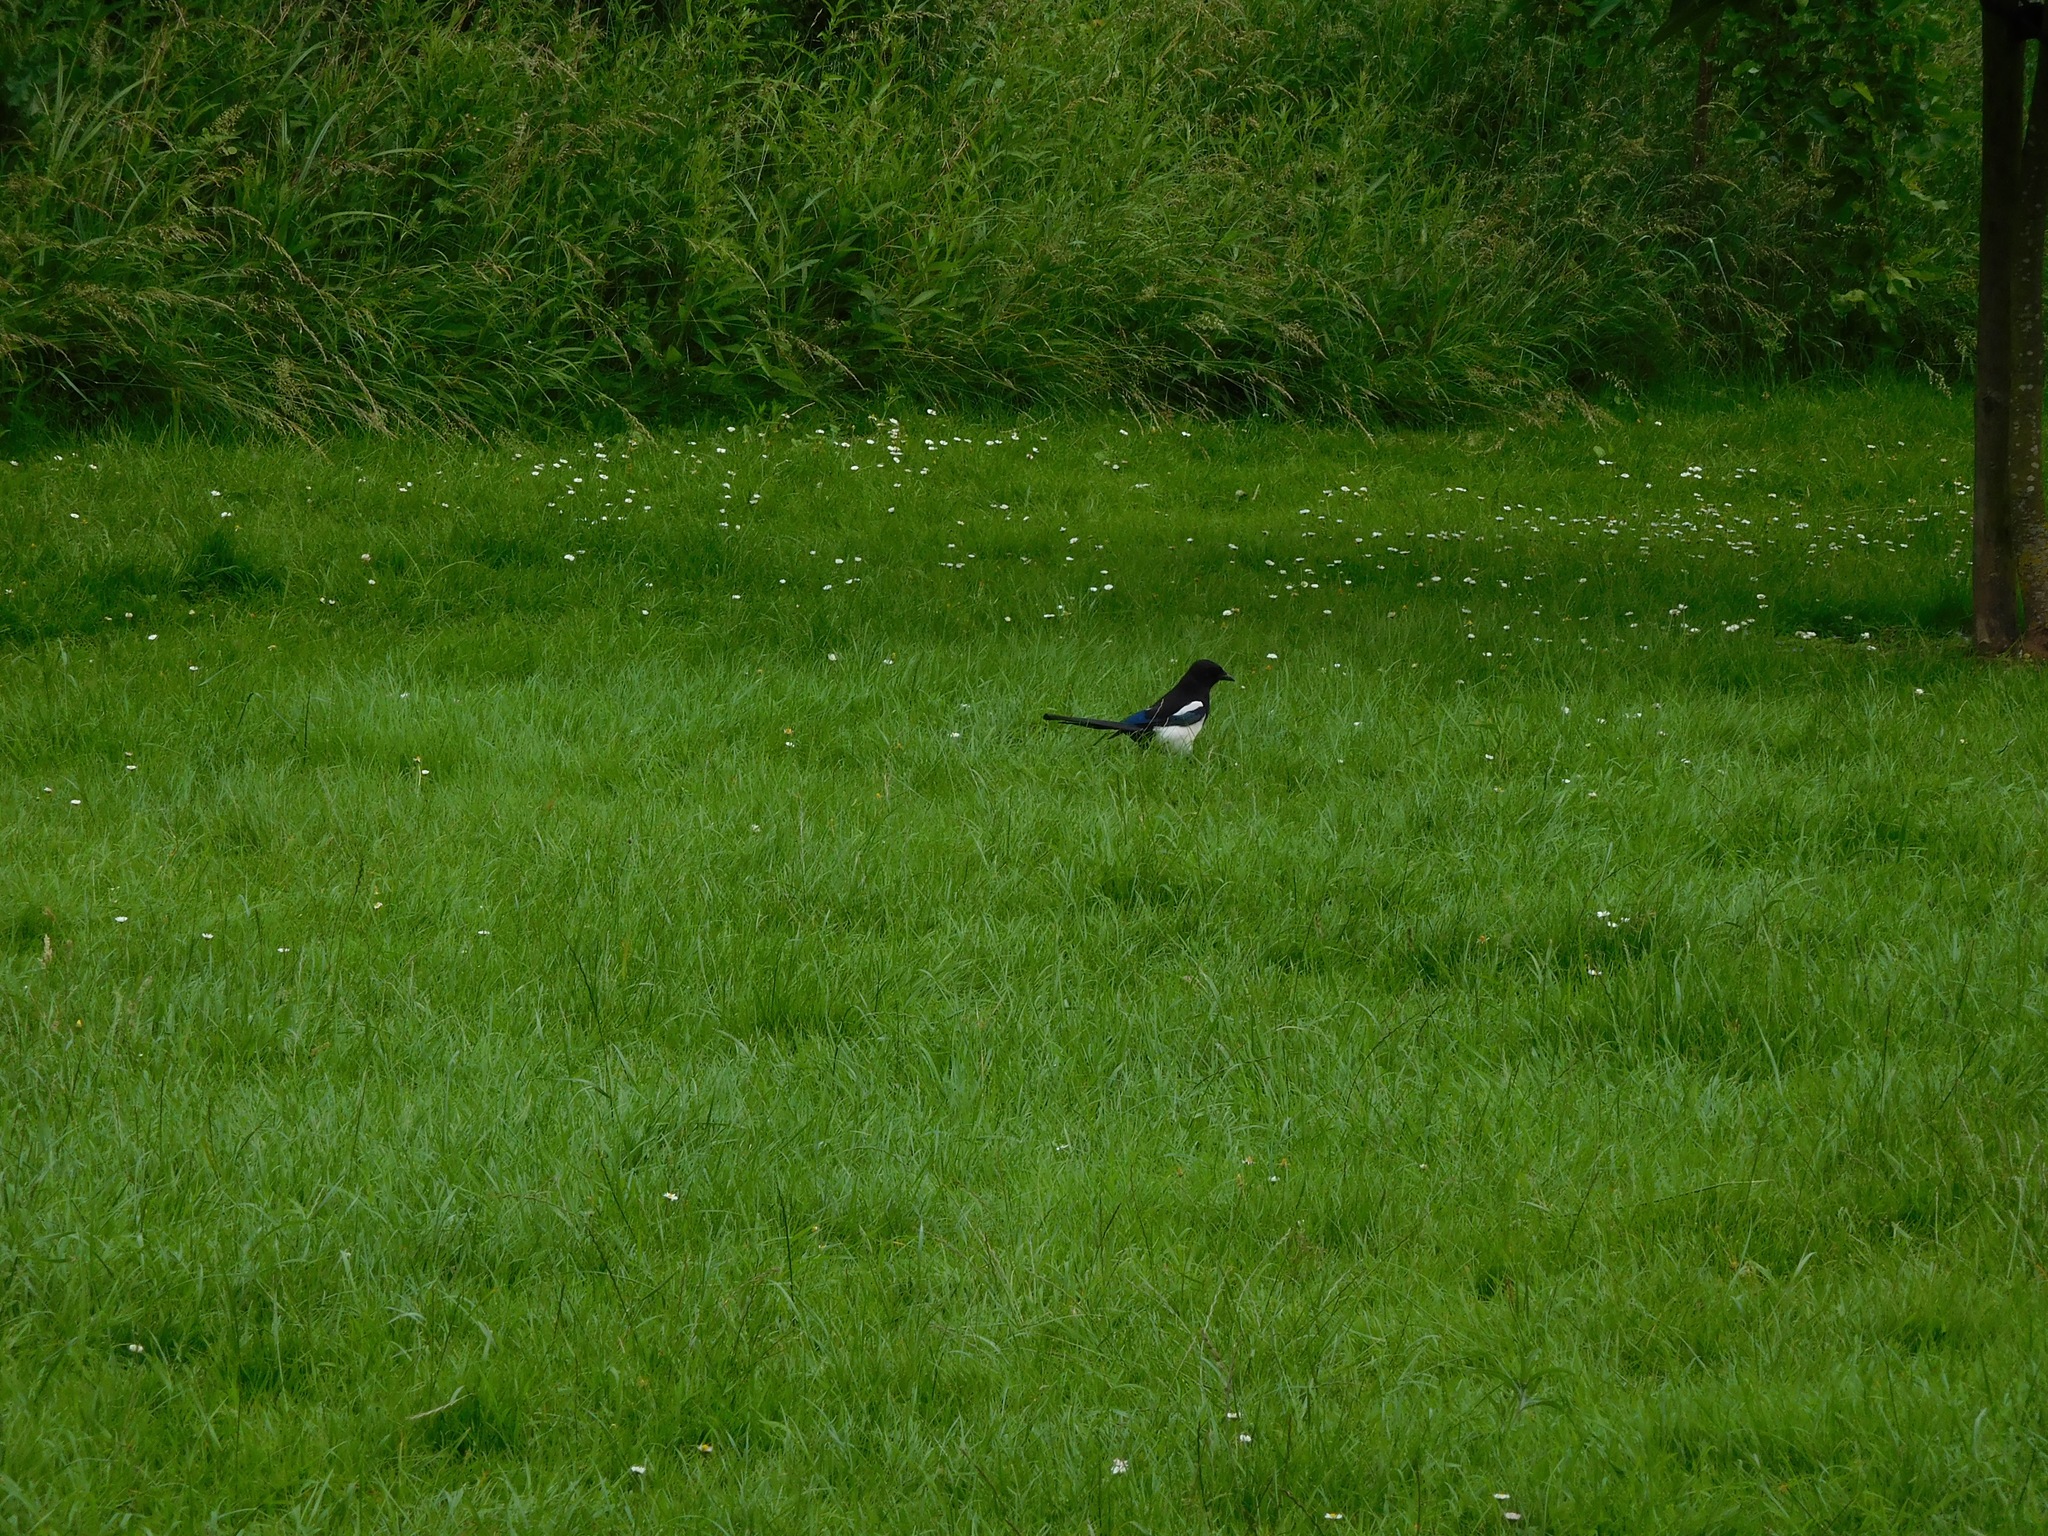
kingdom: Animalia
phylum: Chordata
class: Aves
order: Passeriformes
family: Corvidae
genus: Pica
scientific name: Pica pica
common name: Eurasian magpie
